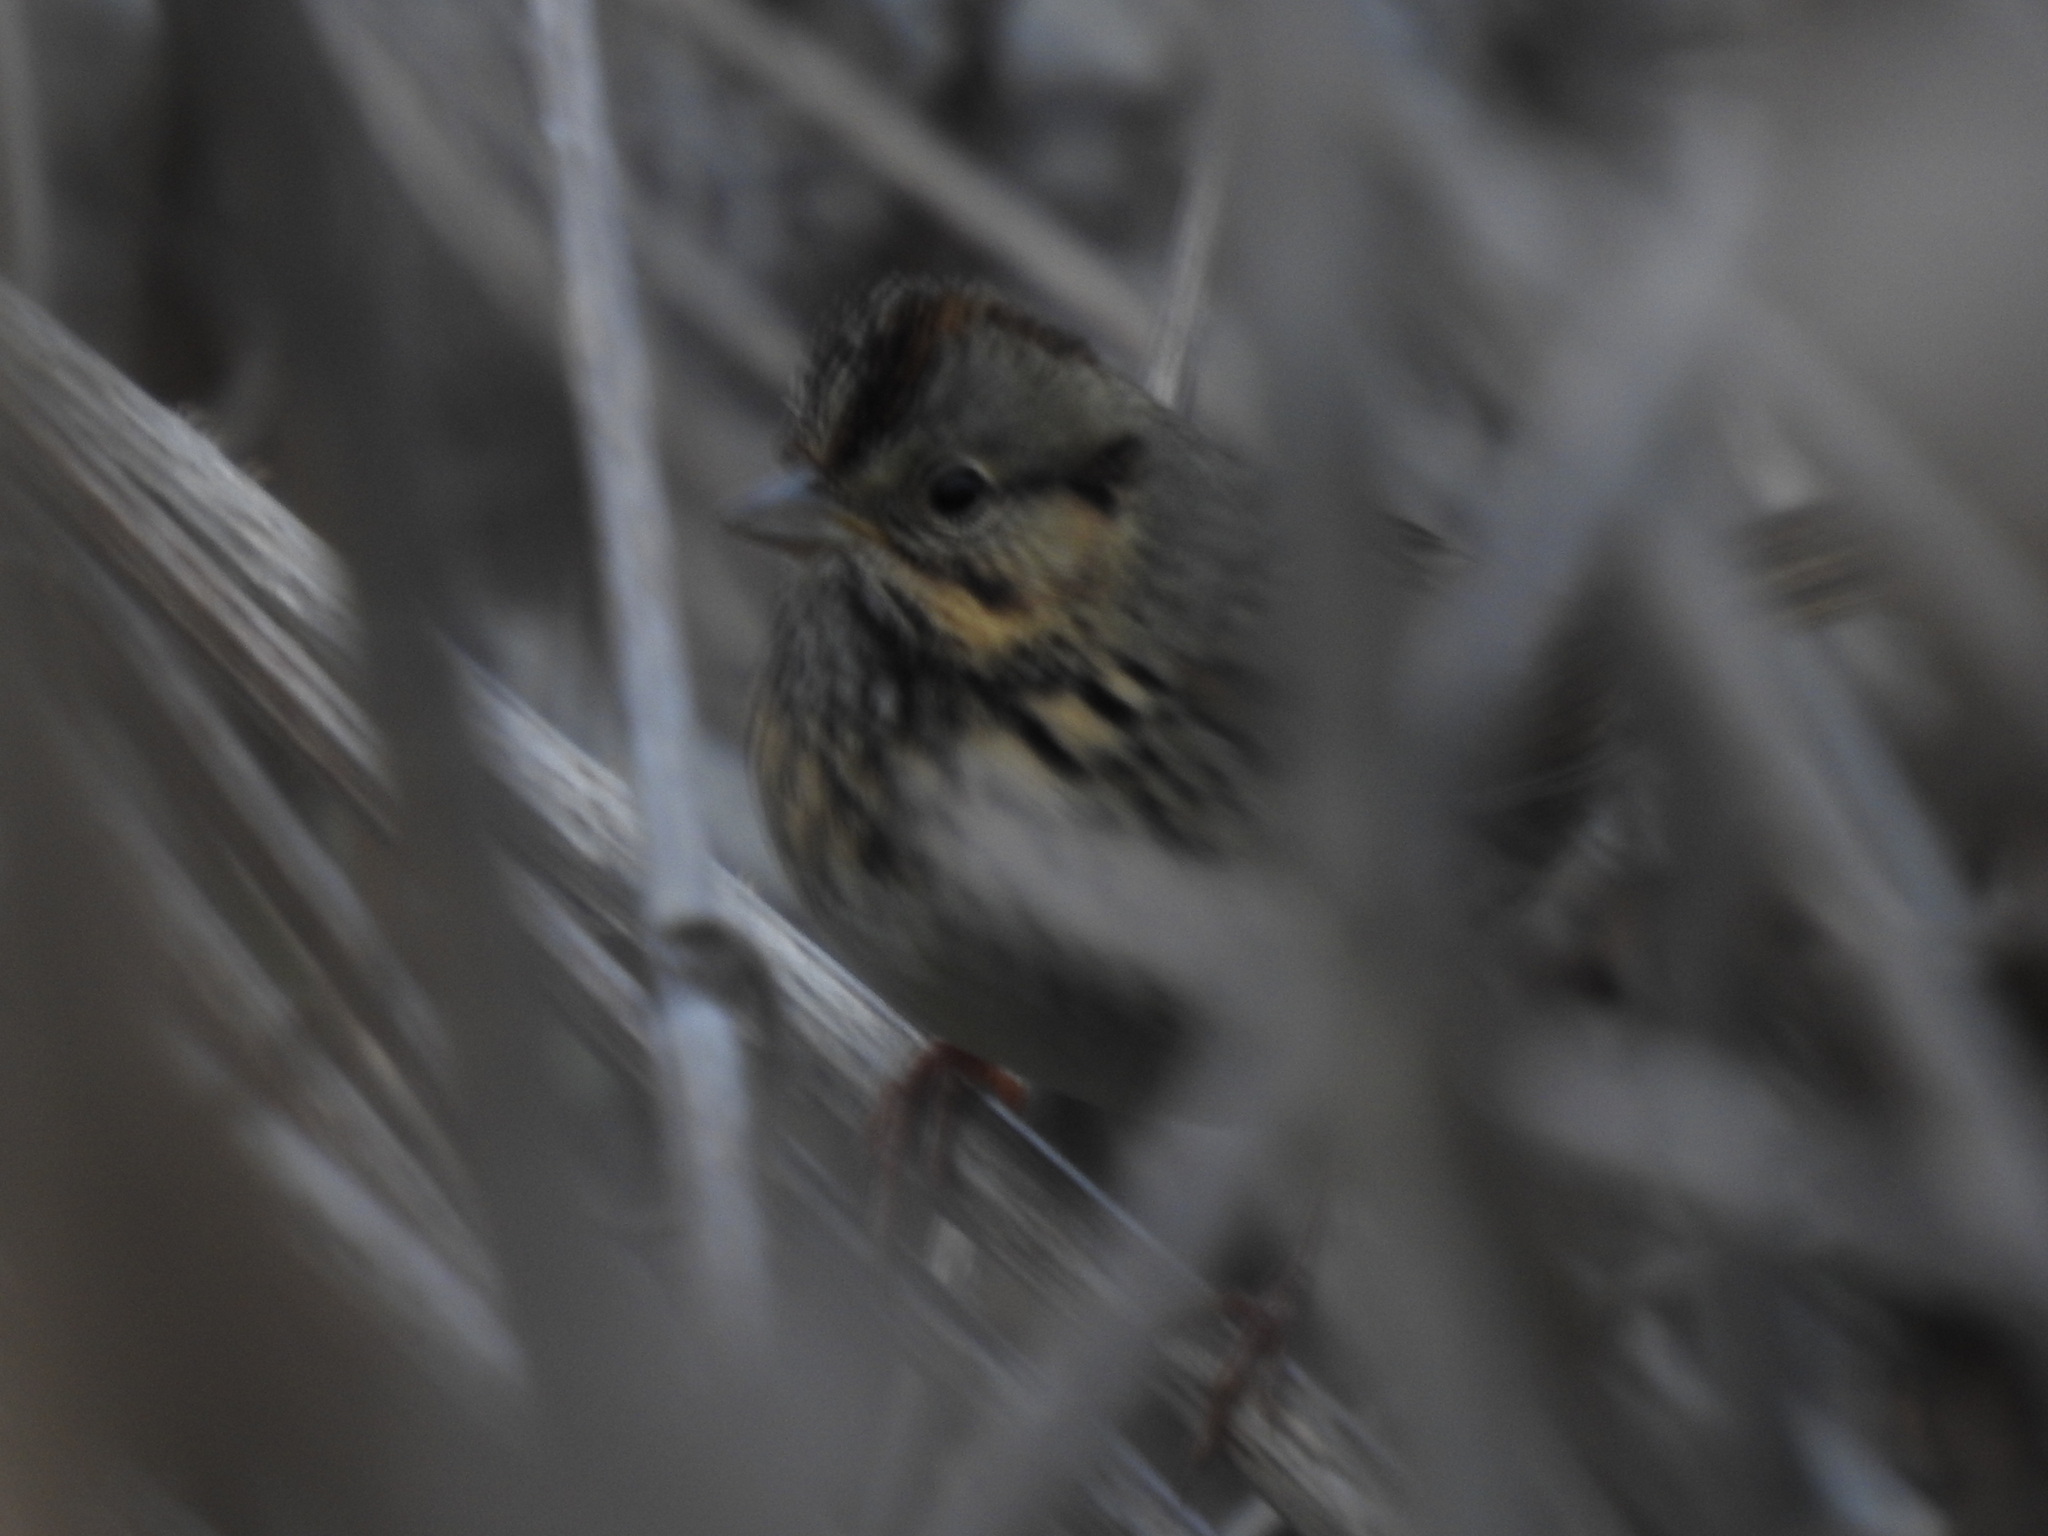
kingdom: Animalia
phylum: Chordata
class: Aves
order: Passeriformes
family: Passerellidae
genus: Melospiza
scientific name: Melospiza lincolnii
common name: Lincoln's sparrow
